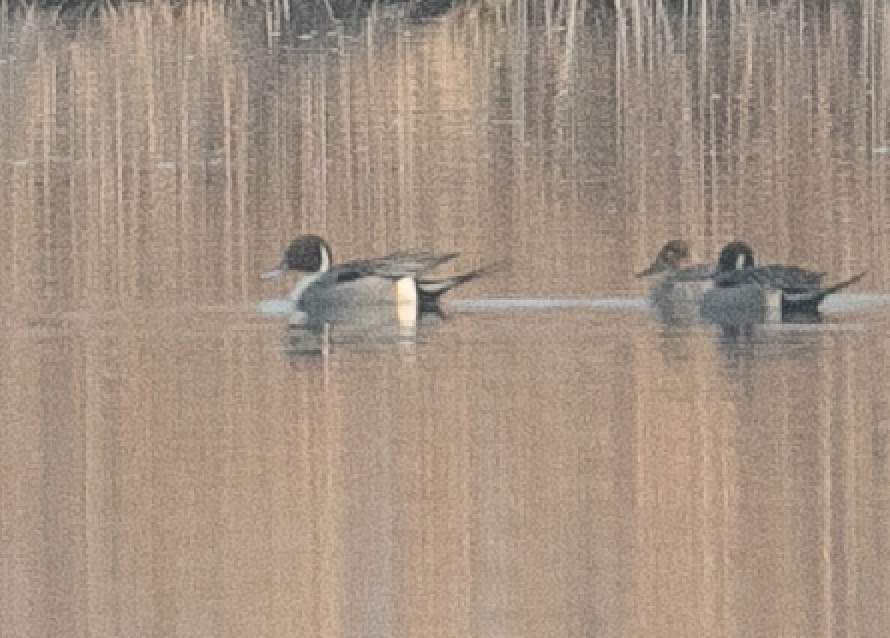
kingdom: Animalia
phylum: Chordata
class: Aves
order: Anseriformes
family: Anatidae
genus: Anas
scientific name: Anas acuta
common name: Northern pintail
